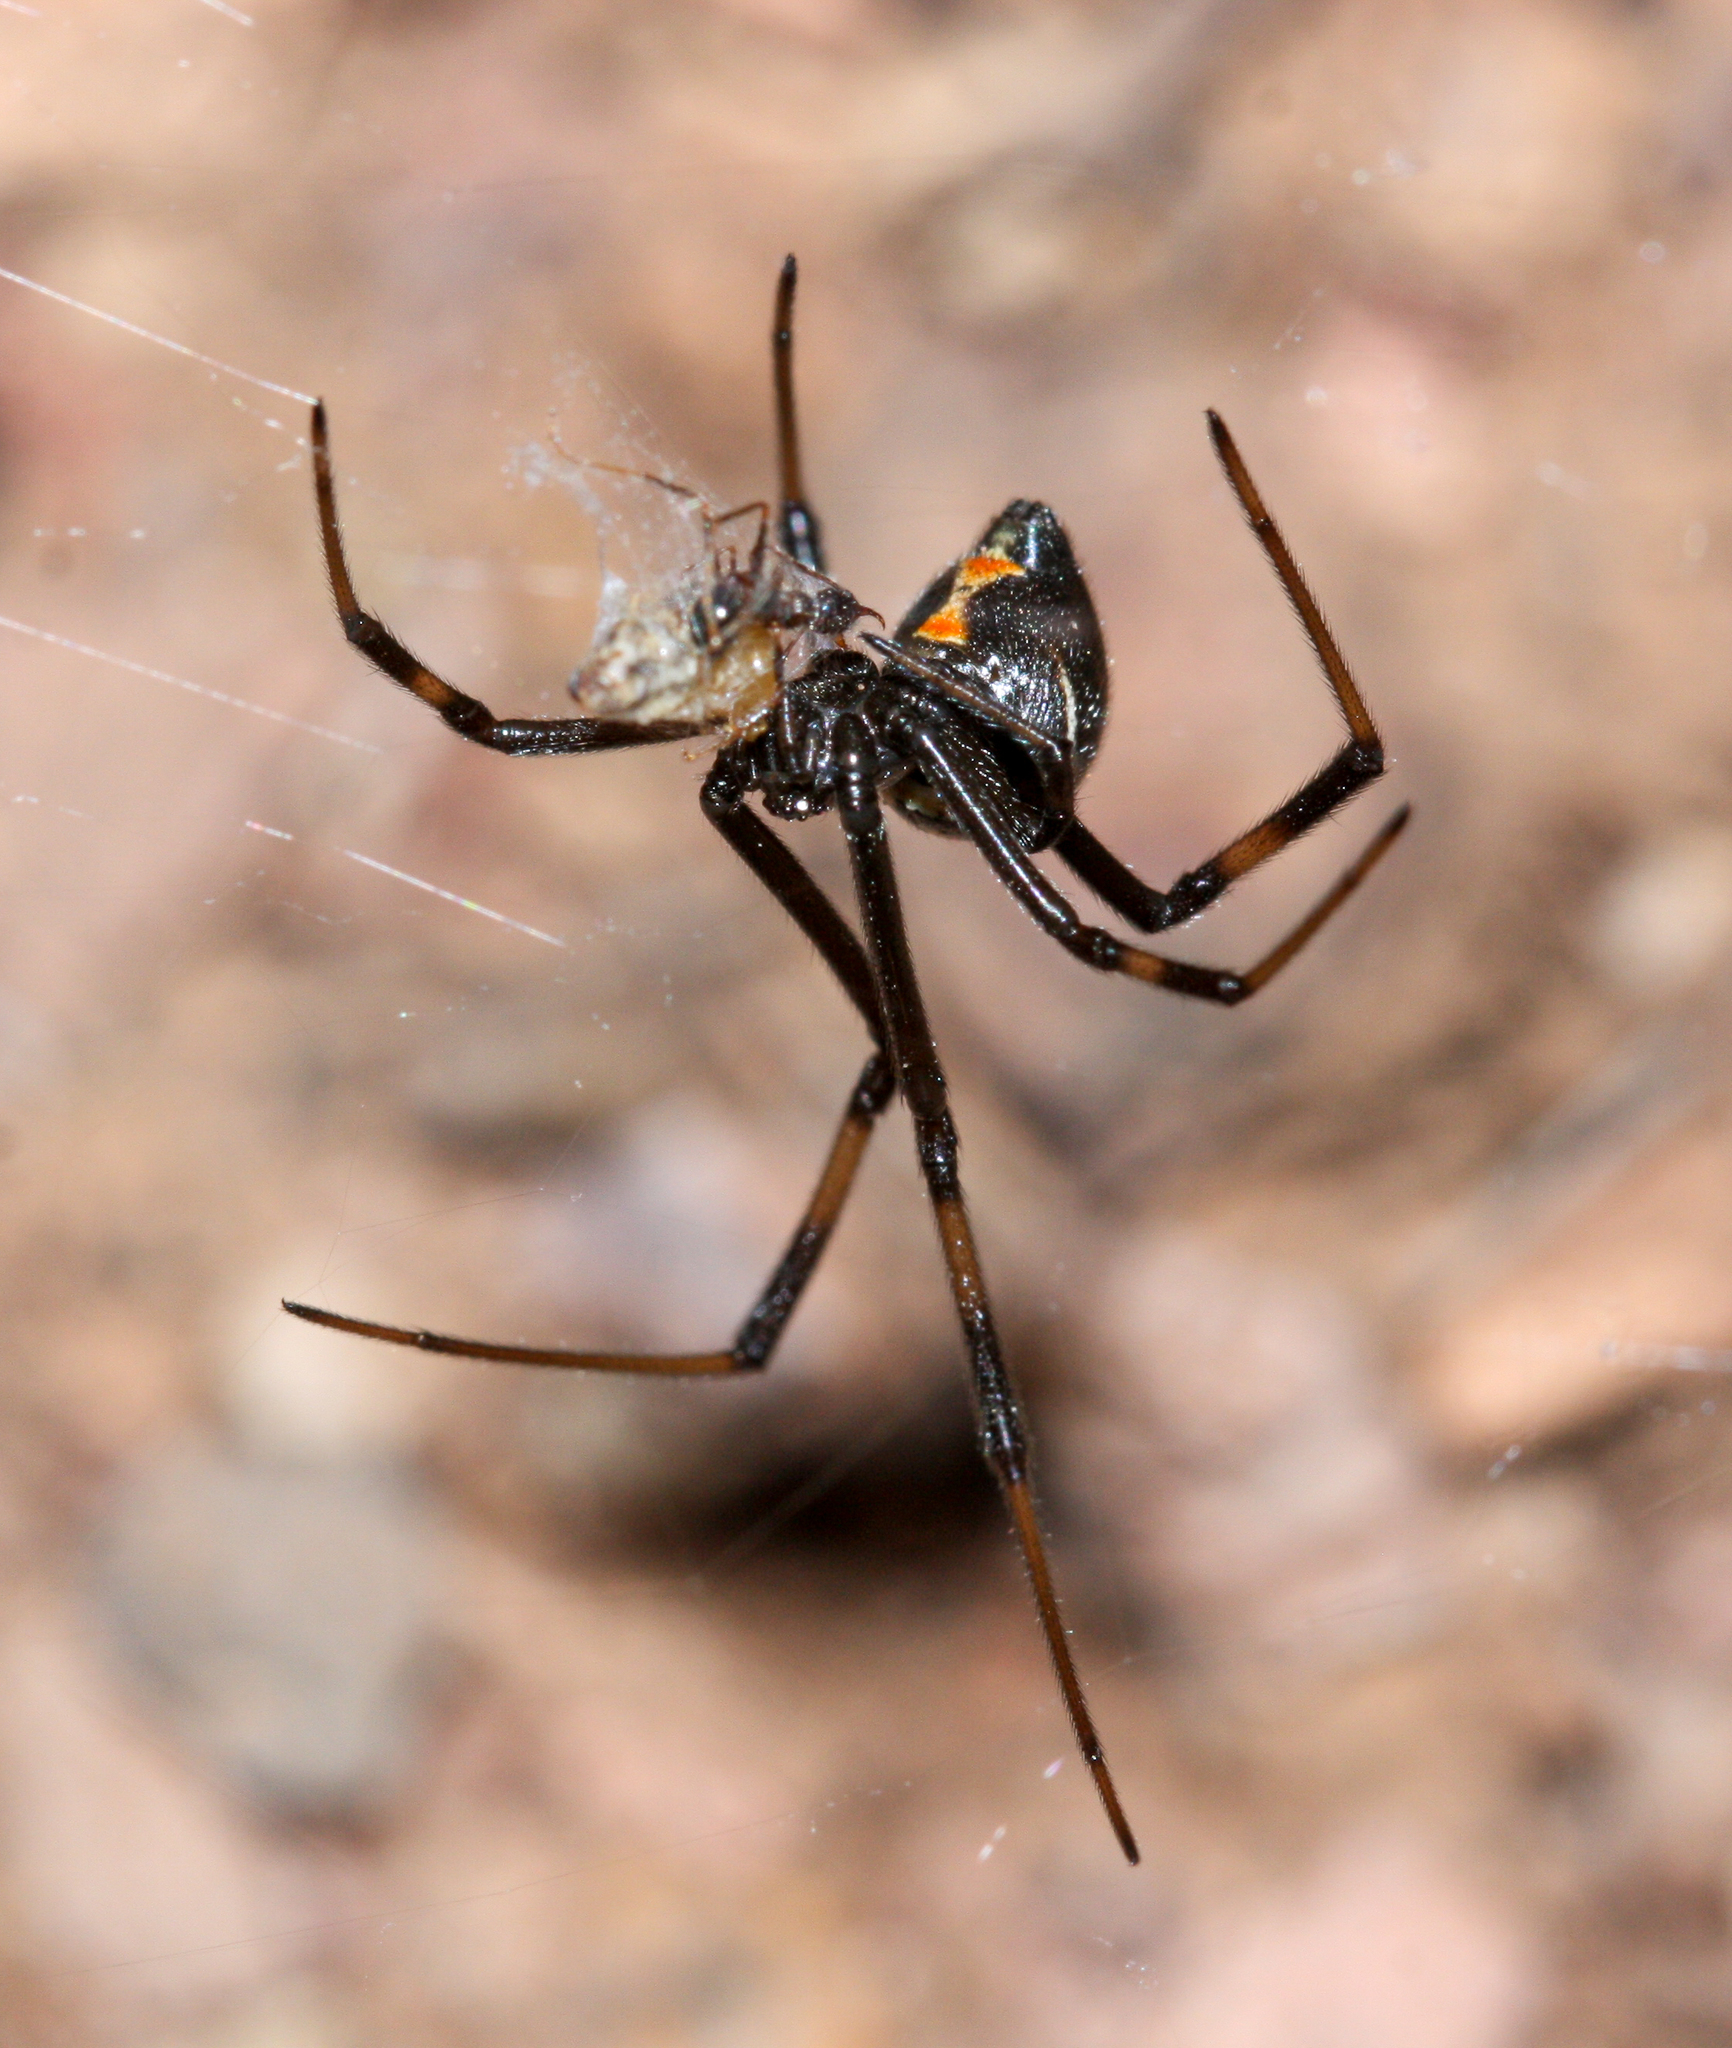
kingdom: Animalia
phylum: Arthropoda
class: Arachnida
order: Araneae
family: Theridiidae
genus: Latrodectus
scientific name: Latrodectus hesperus
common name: Western black widow
